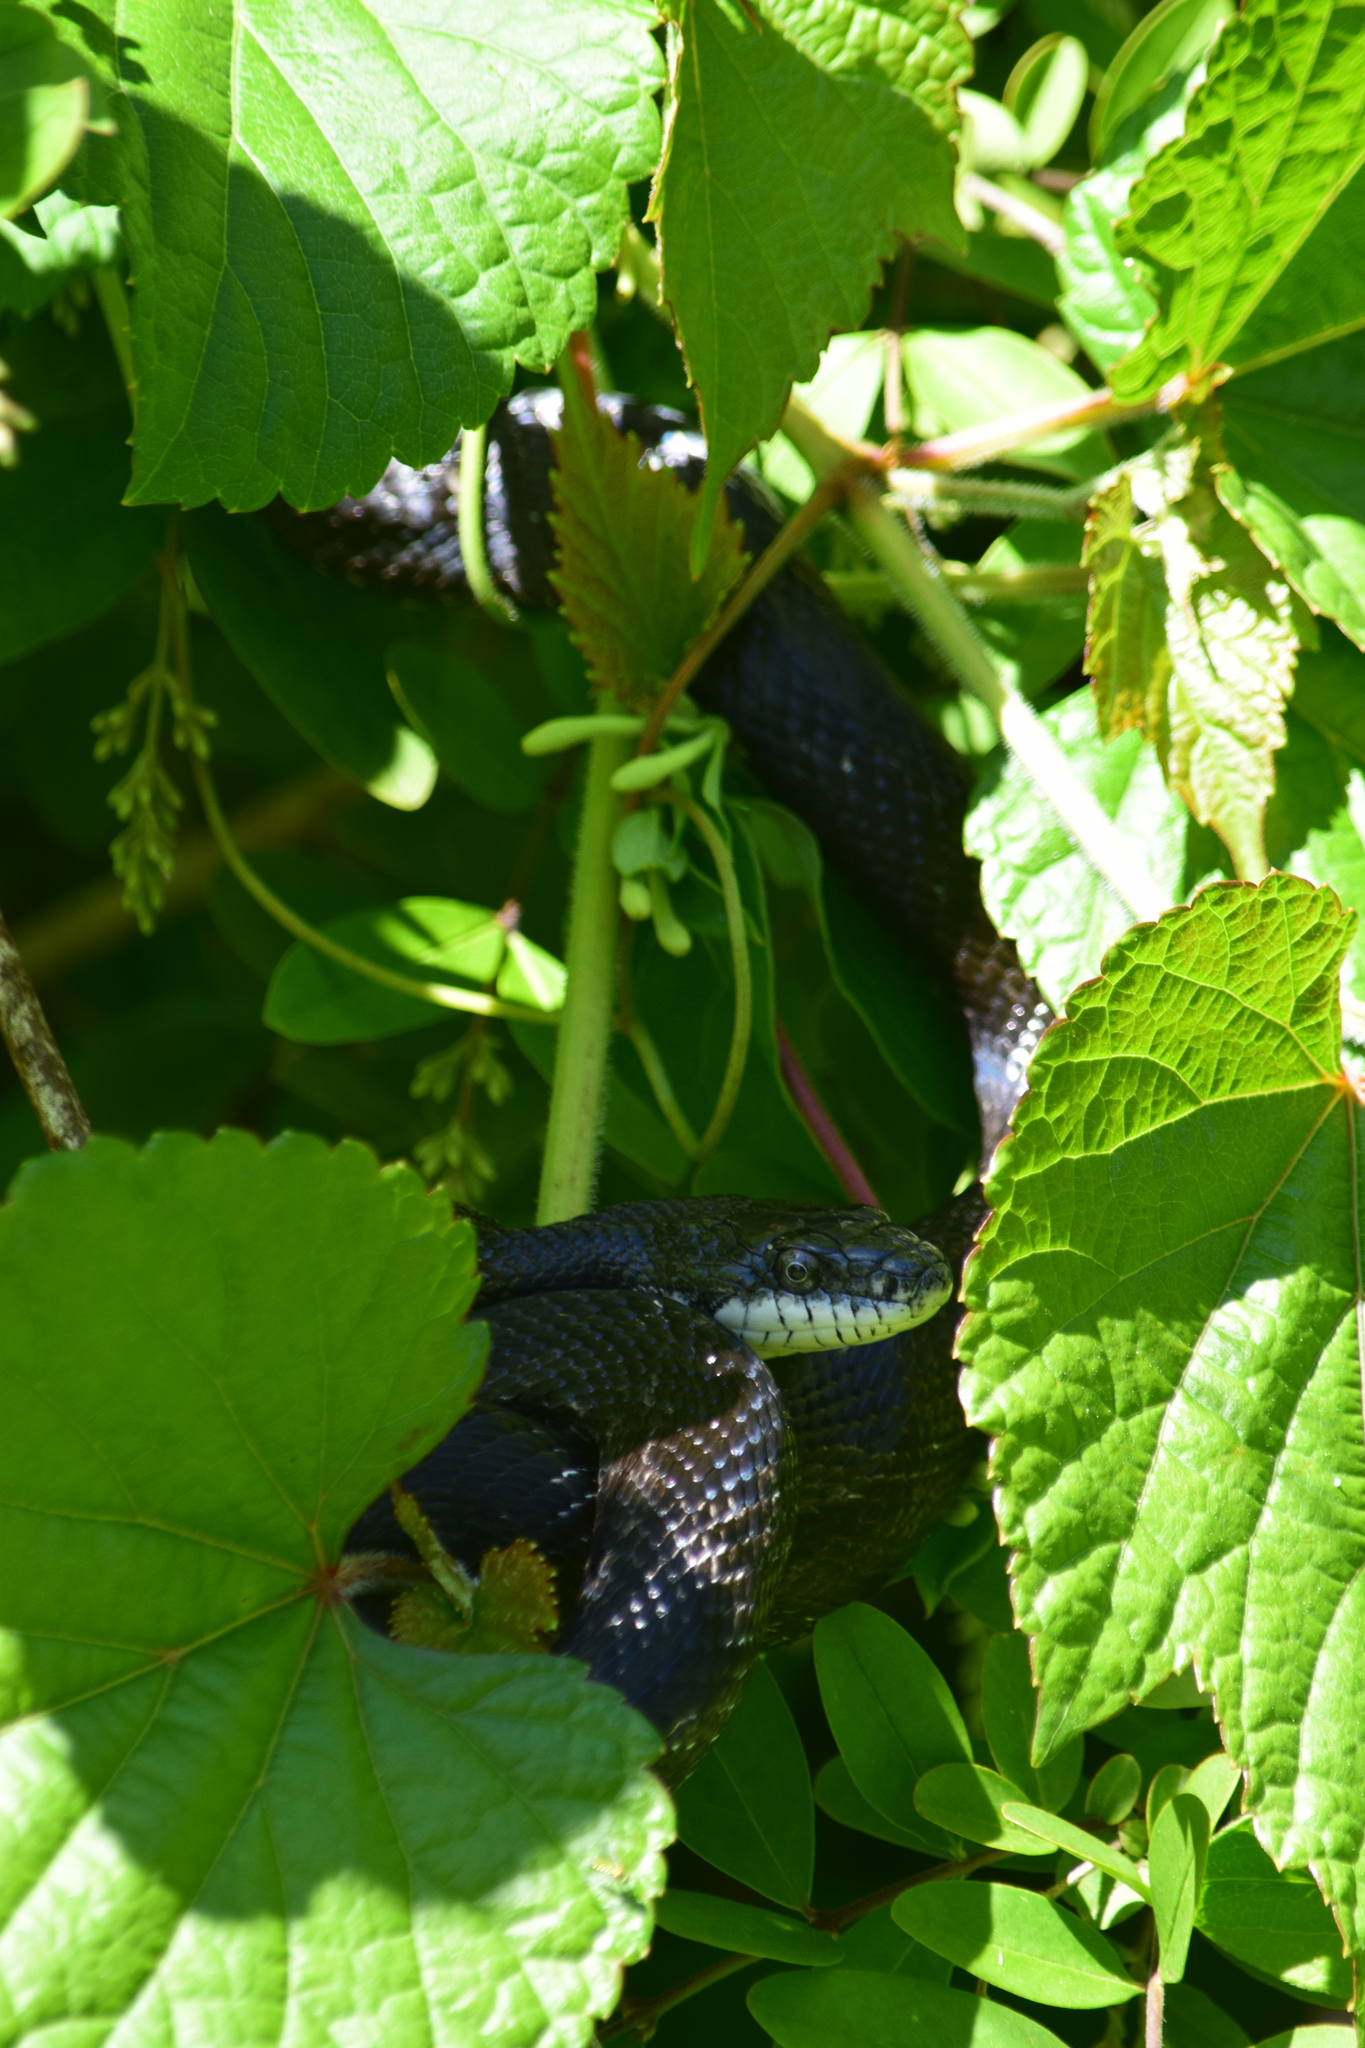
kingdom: Animalia
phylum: Chordata
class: Squamata
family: Colubridae
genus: Pantherophis
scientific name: Pantherophis alleghaniensis
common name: Eastern rat snake
